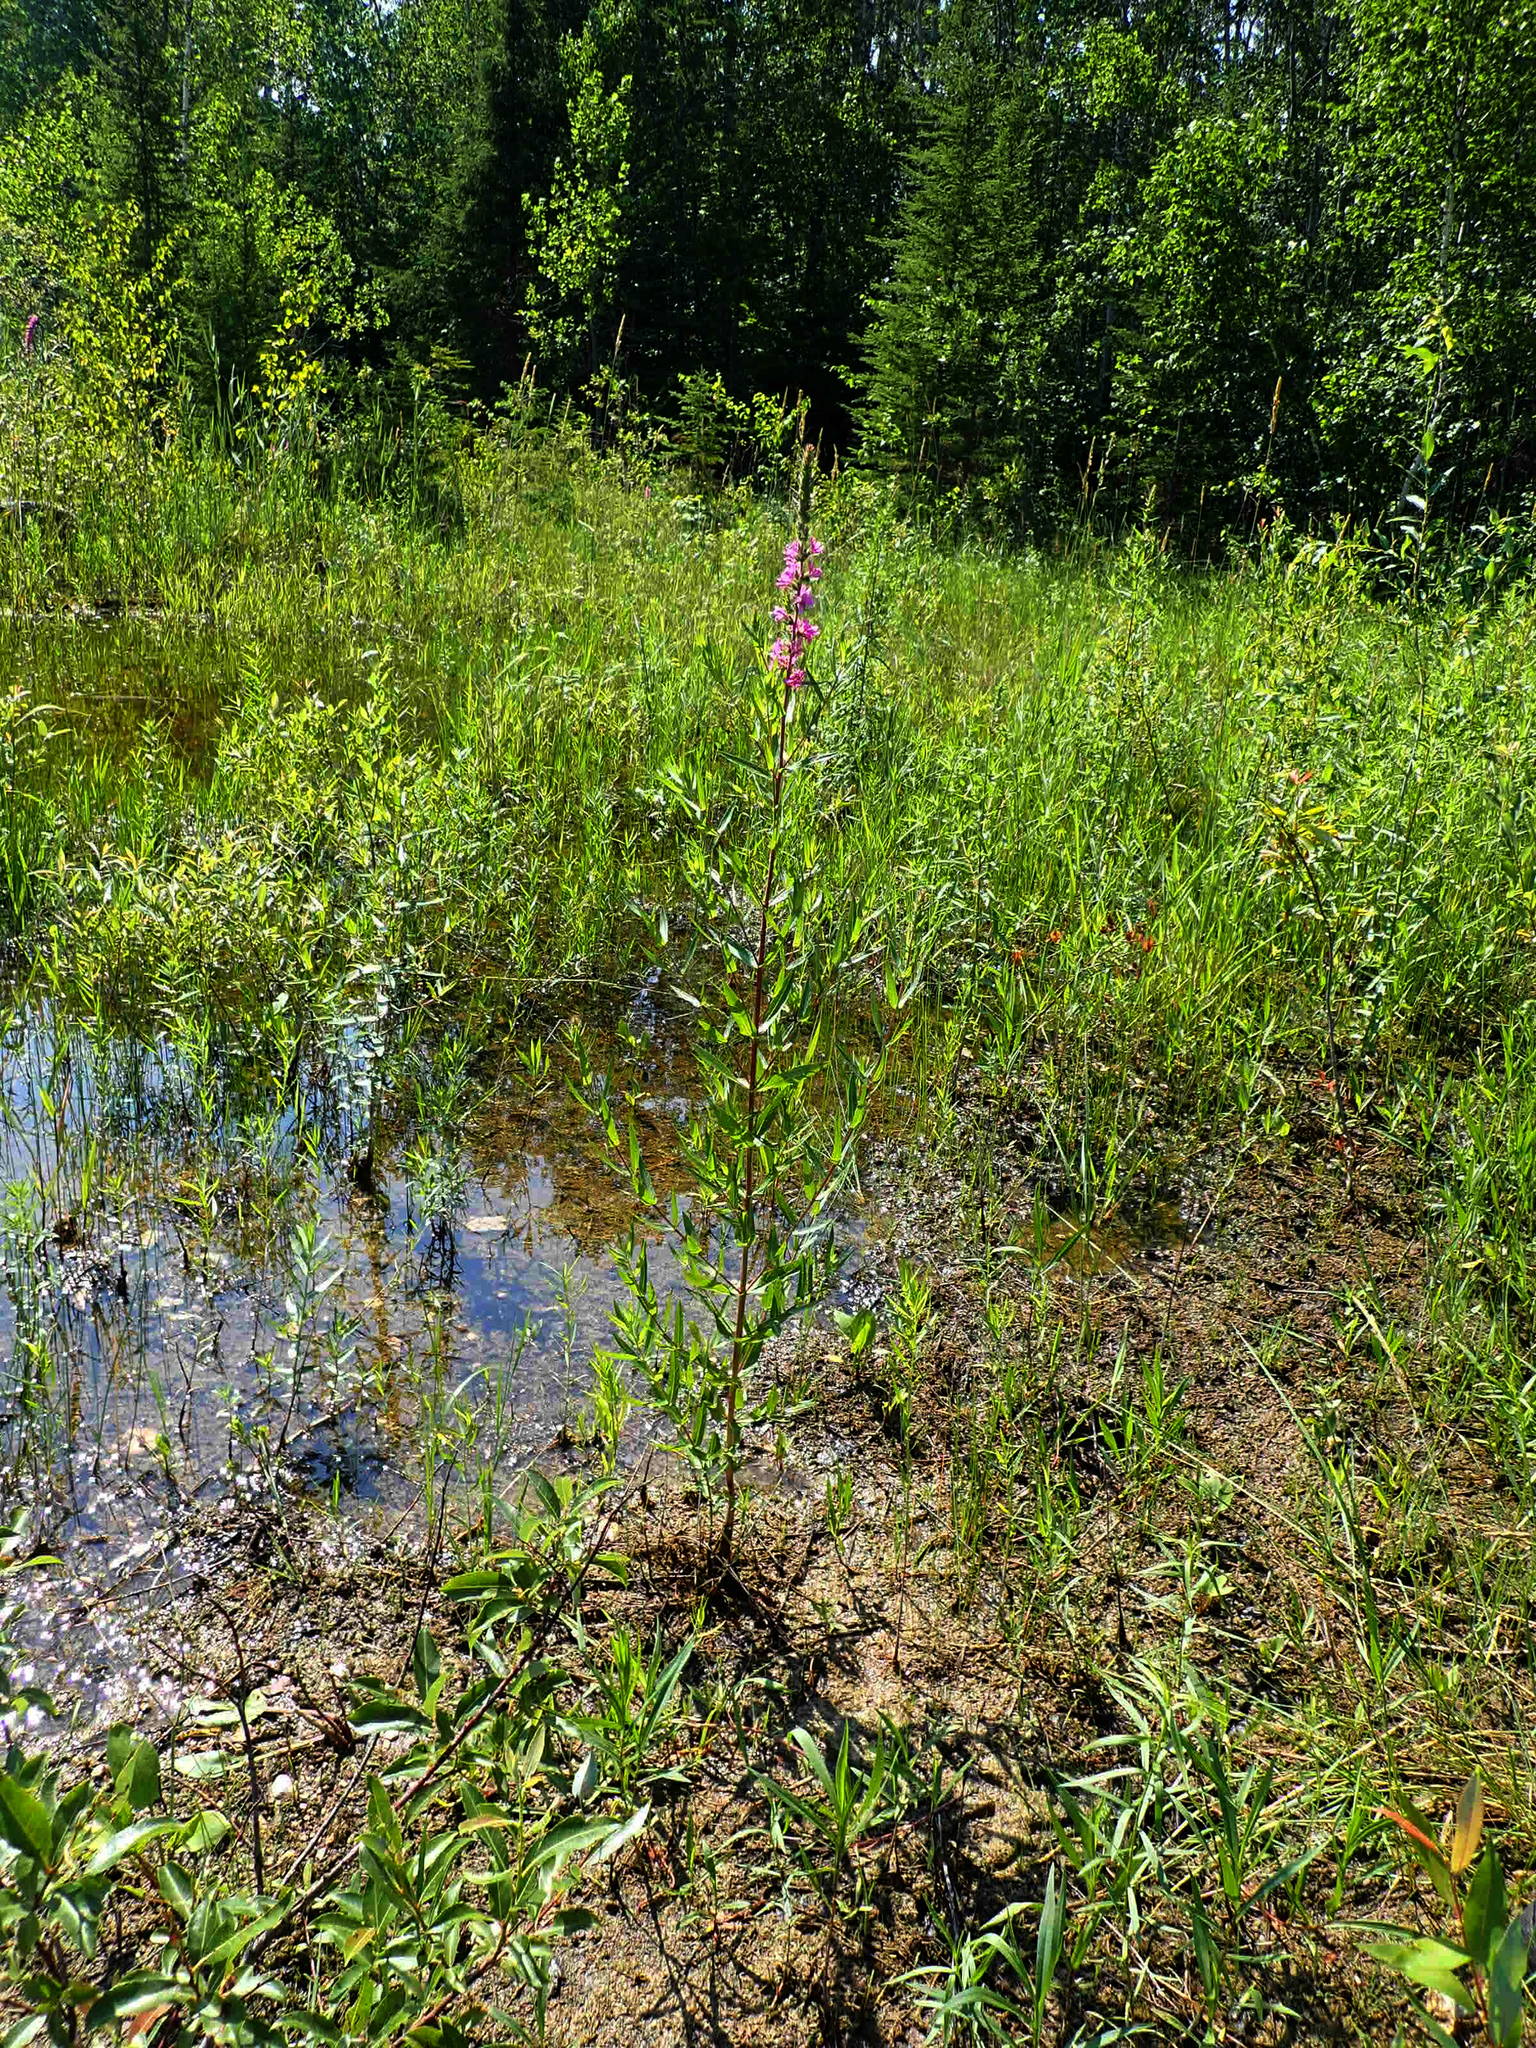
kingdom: Plantae
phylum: Tracheophyta
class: Magnoliopsida
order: Myrtales
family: Lythraceae
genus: Lythrum
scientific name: Lythrum salicaria
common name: Purple loosestrife
